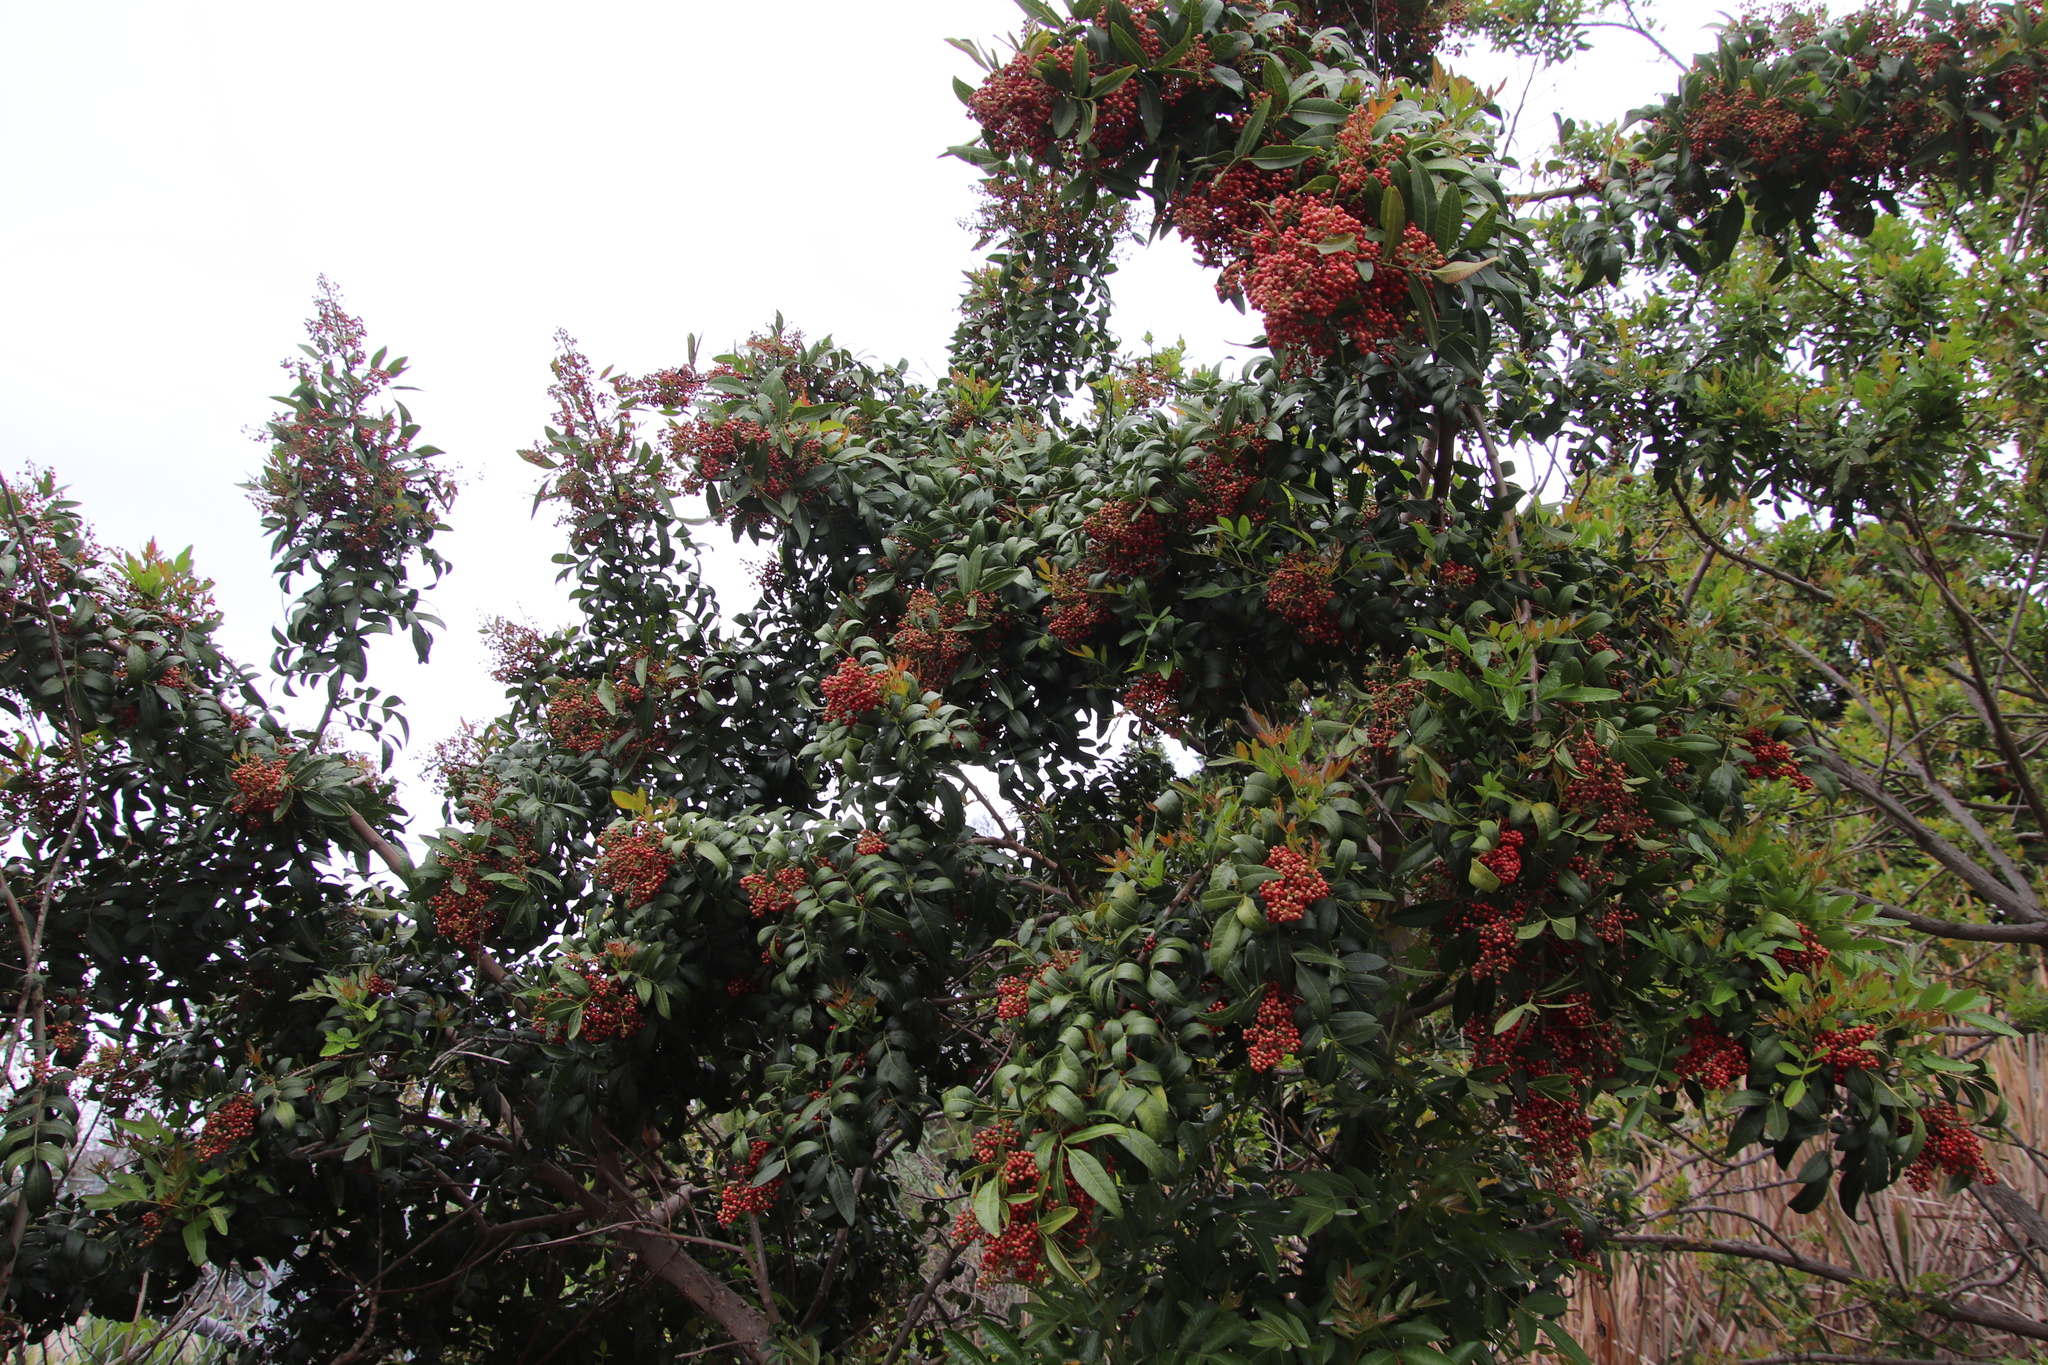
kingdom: Plantae
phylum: Tracheophyta
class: Magnoliopsida
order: Sapindales
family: Anacardiaceae
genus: Schinus
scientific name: Schinus terebinthifolia
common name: Brazilian peppertree
